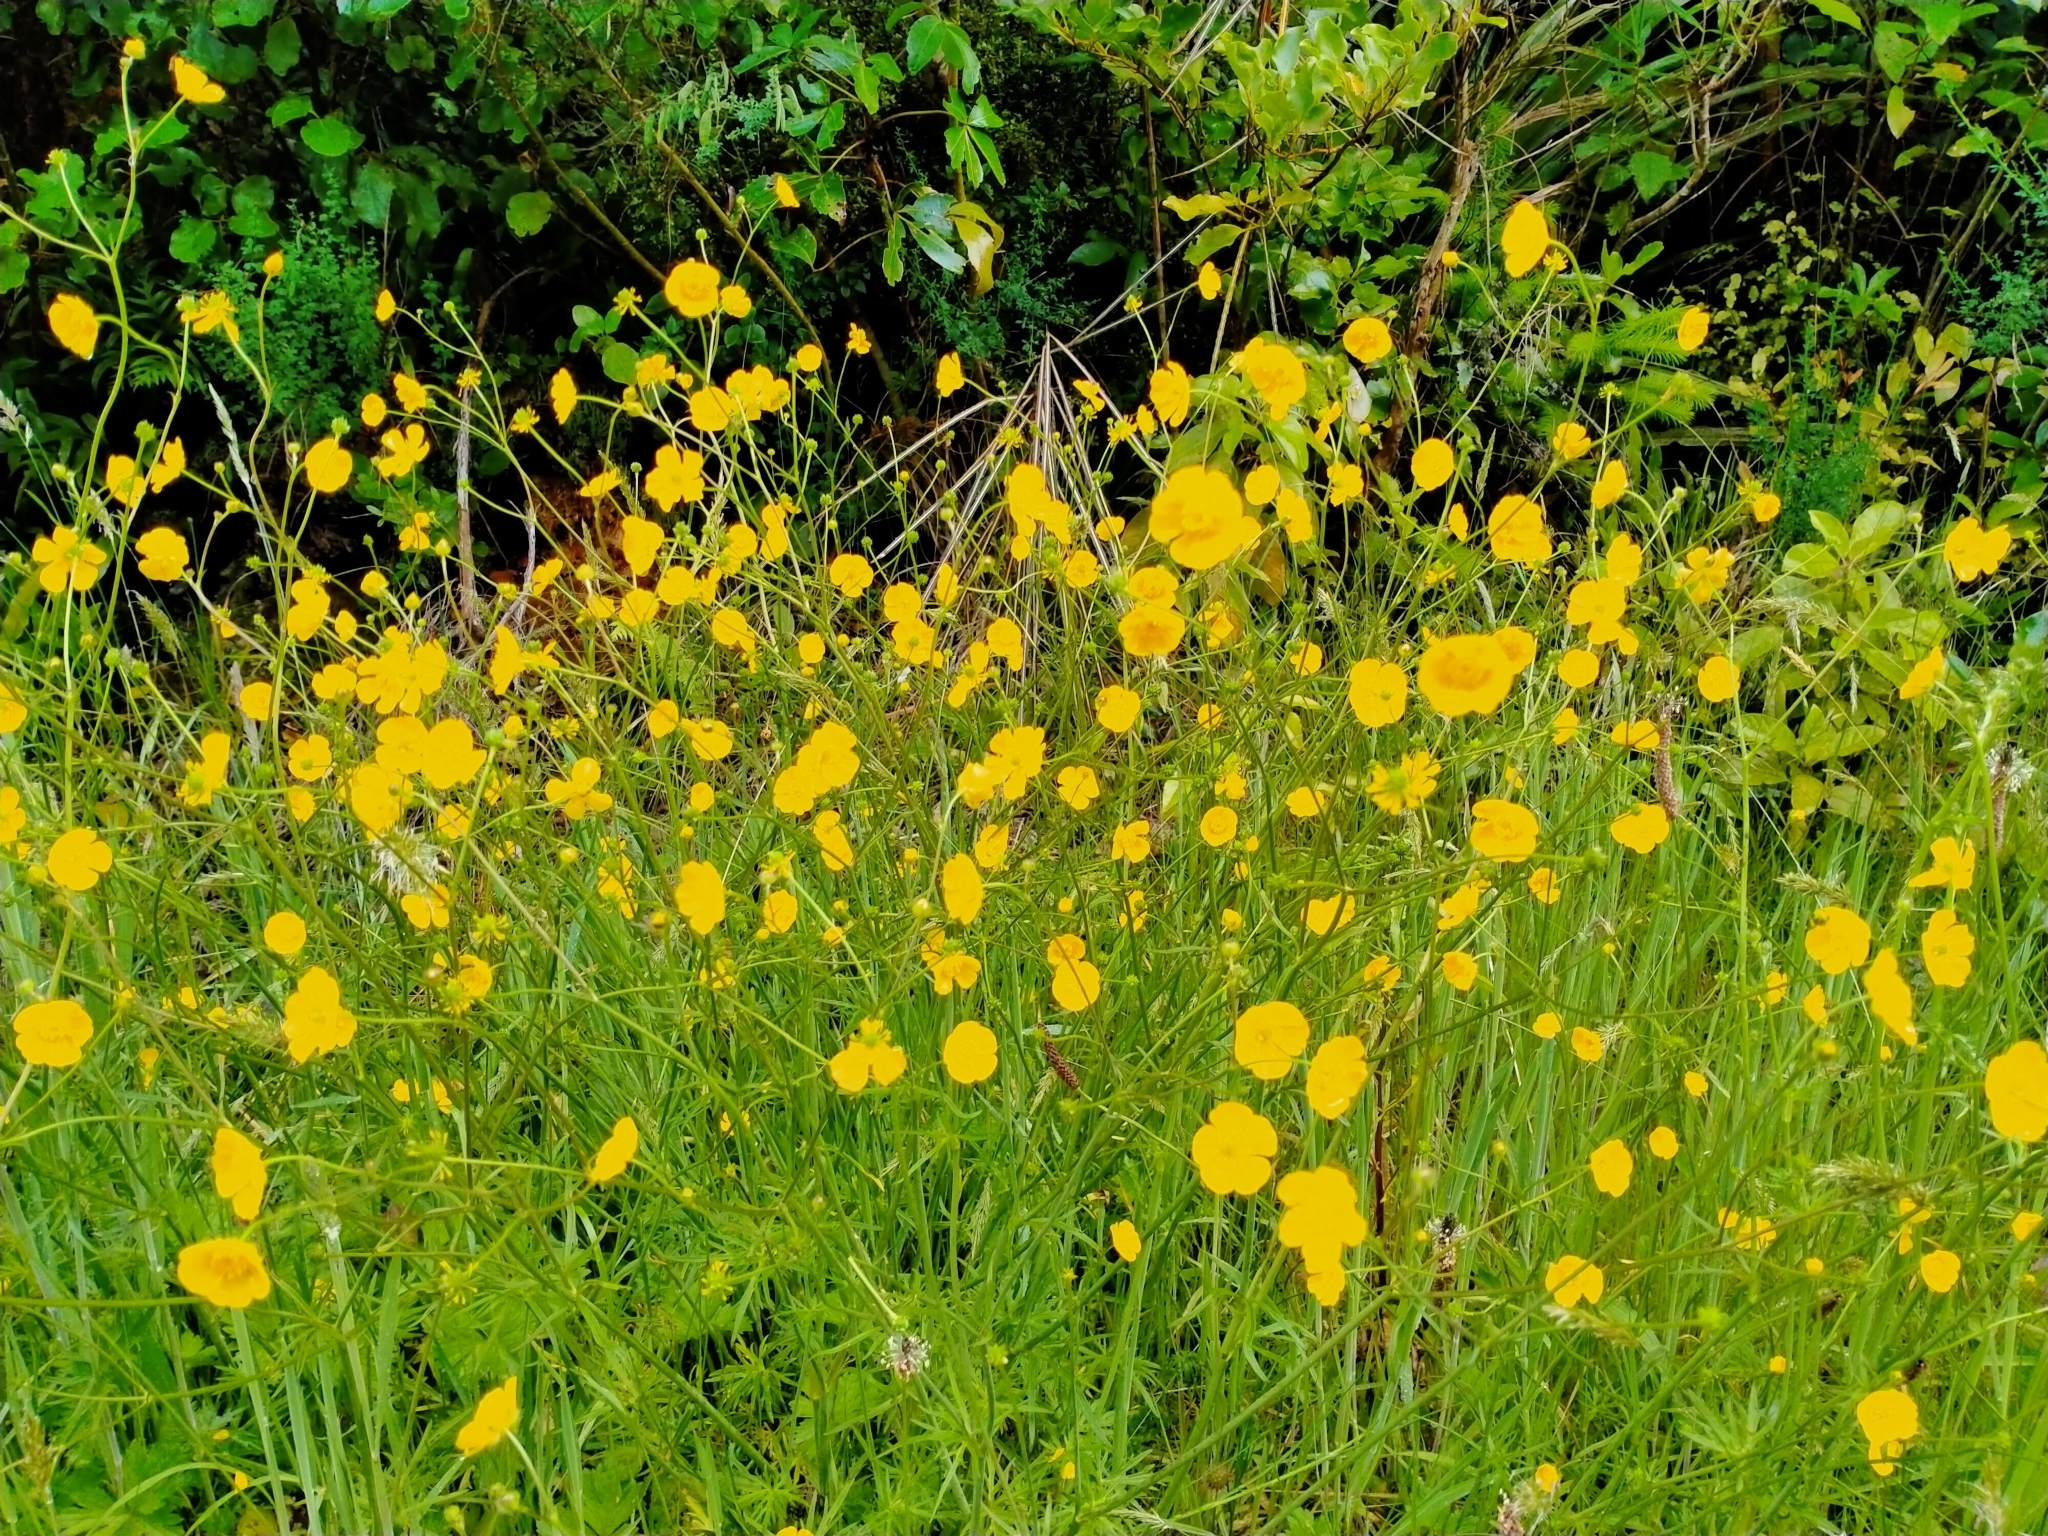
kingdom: Plantae
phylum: Tracheophyta
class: Magnoliopsida
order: Ranunculales
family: Ranunculaceae
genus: Ranunculus
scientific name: Ranunculus acris
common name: Meadow buttercup
